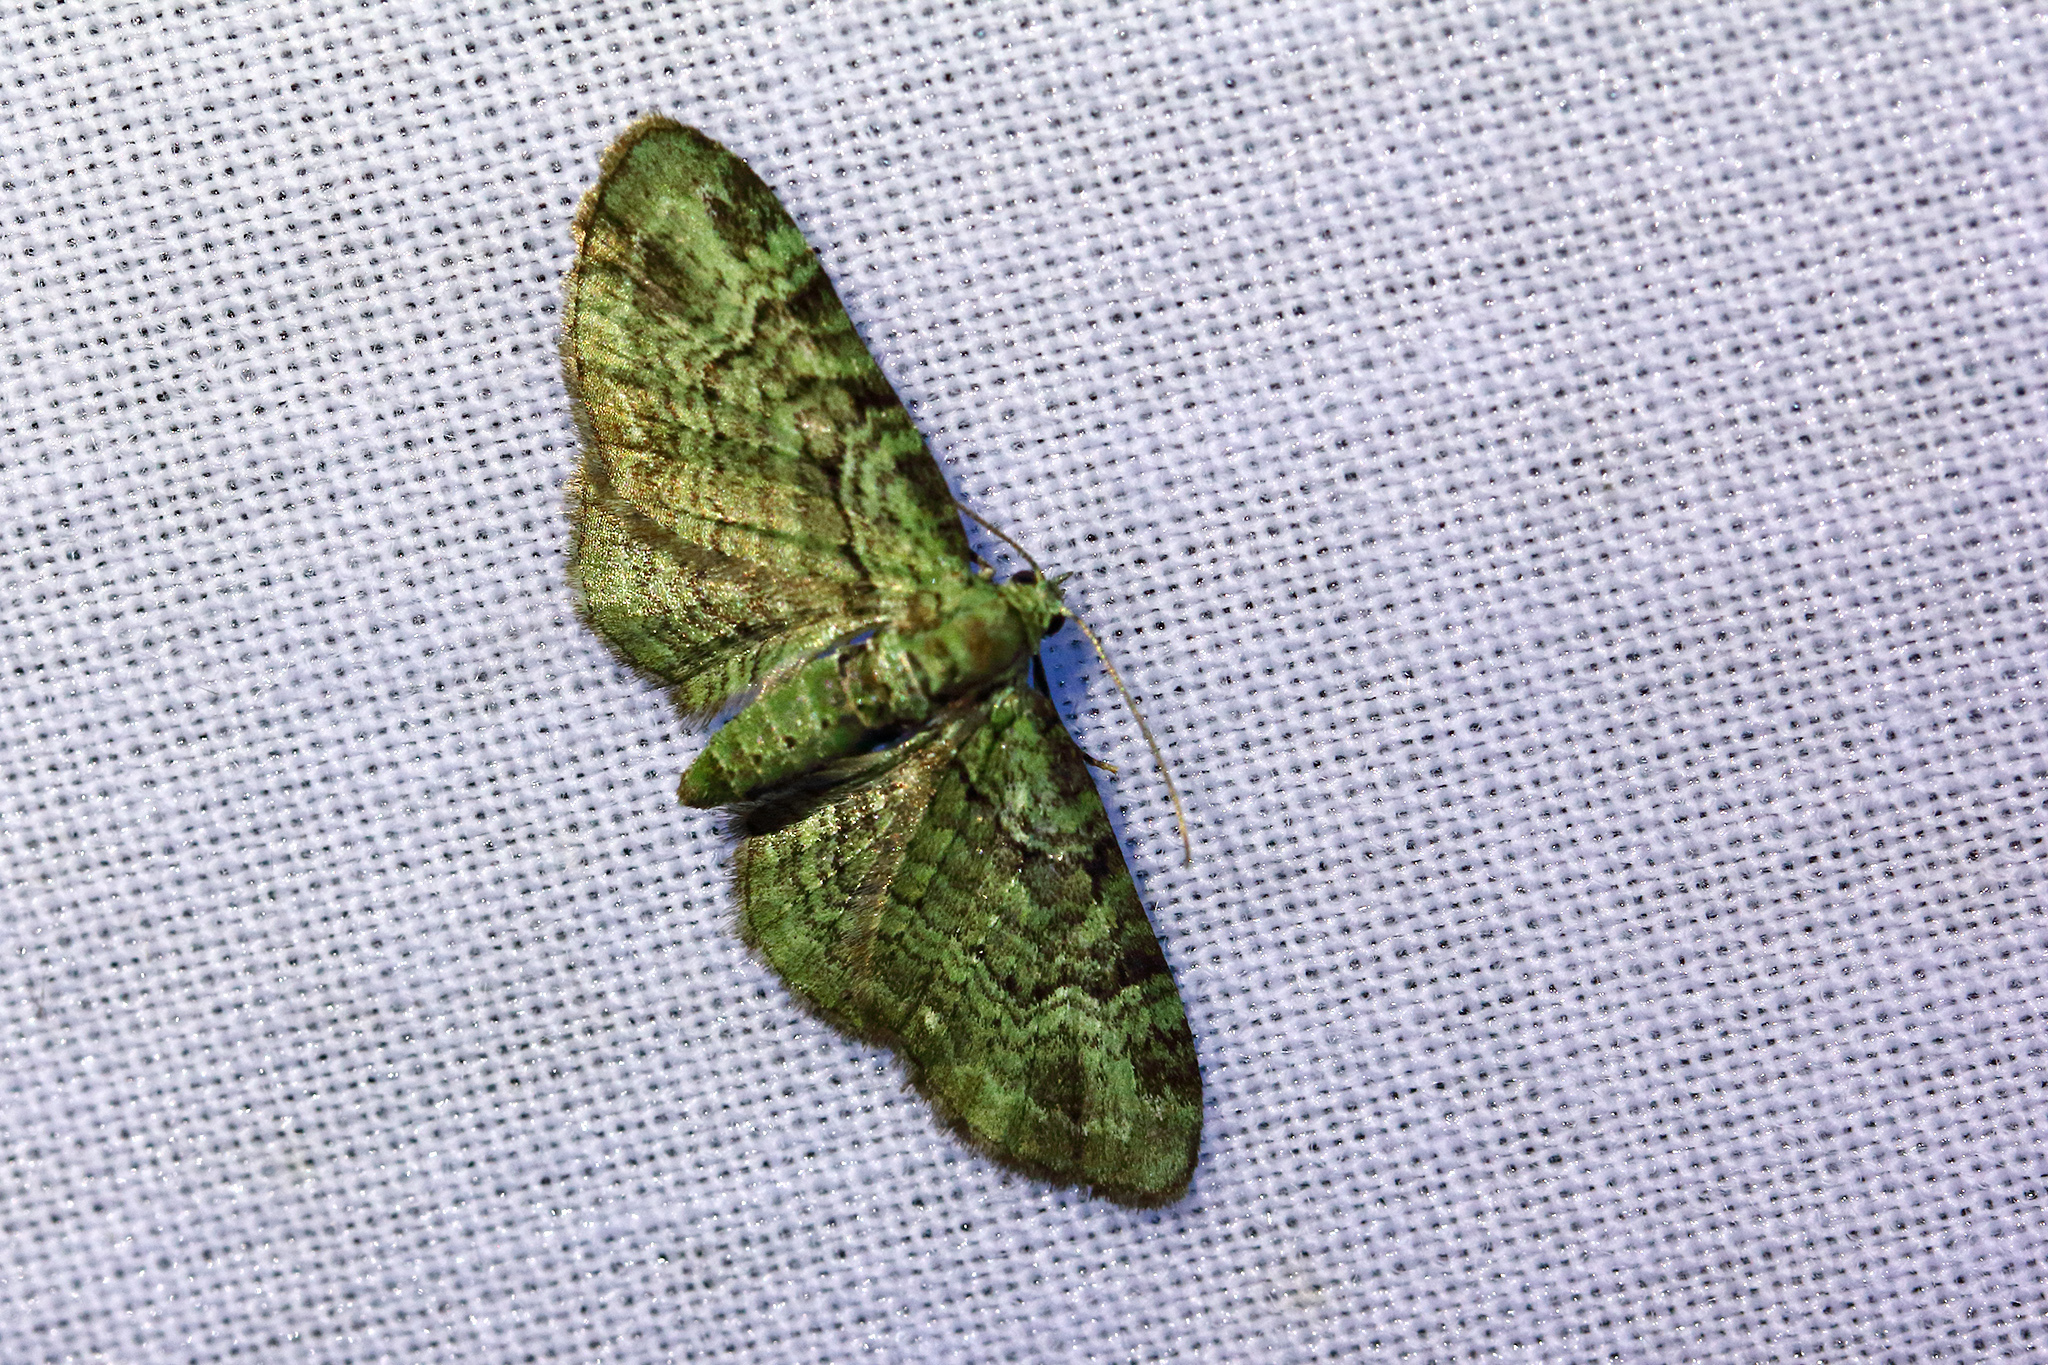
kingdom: Animalia
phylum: Arthropoda
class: Insecta
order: Lepidoptera
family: Geometridae
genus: Pasiphila
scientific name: Pasiphila rectangulata
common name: Green pug
